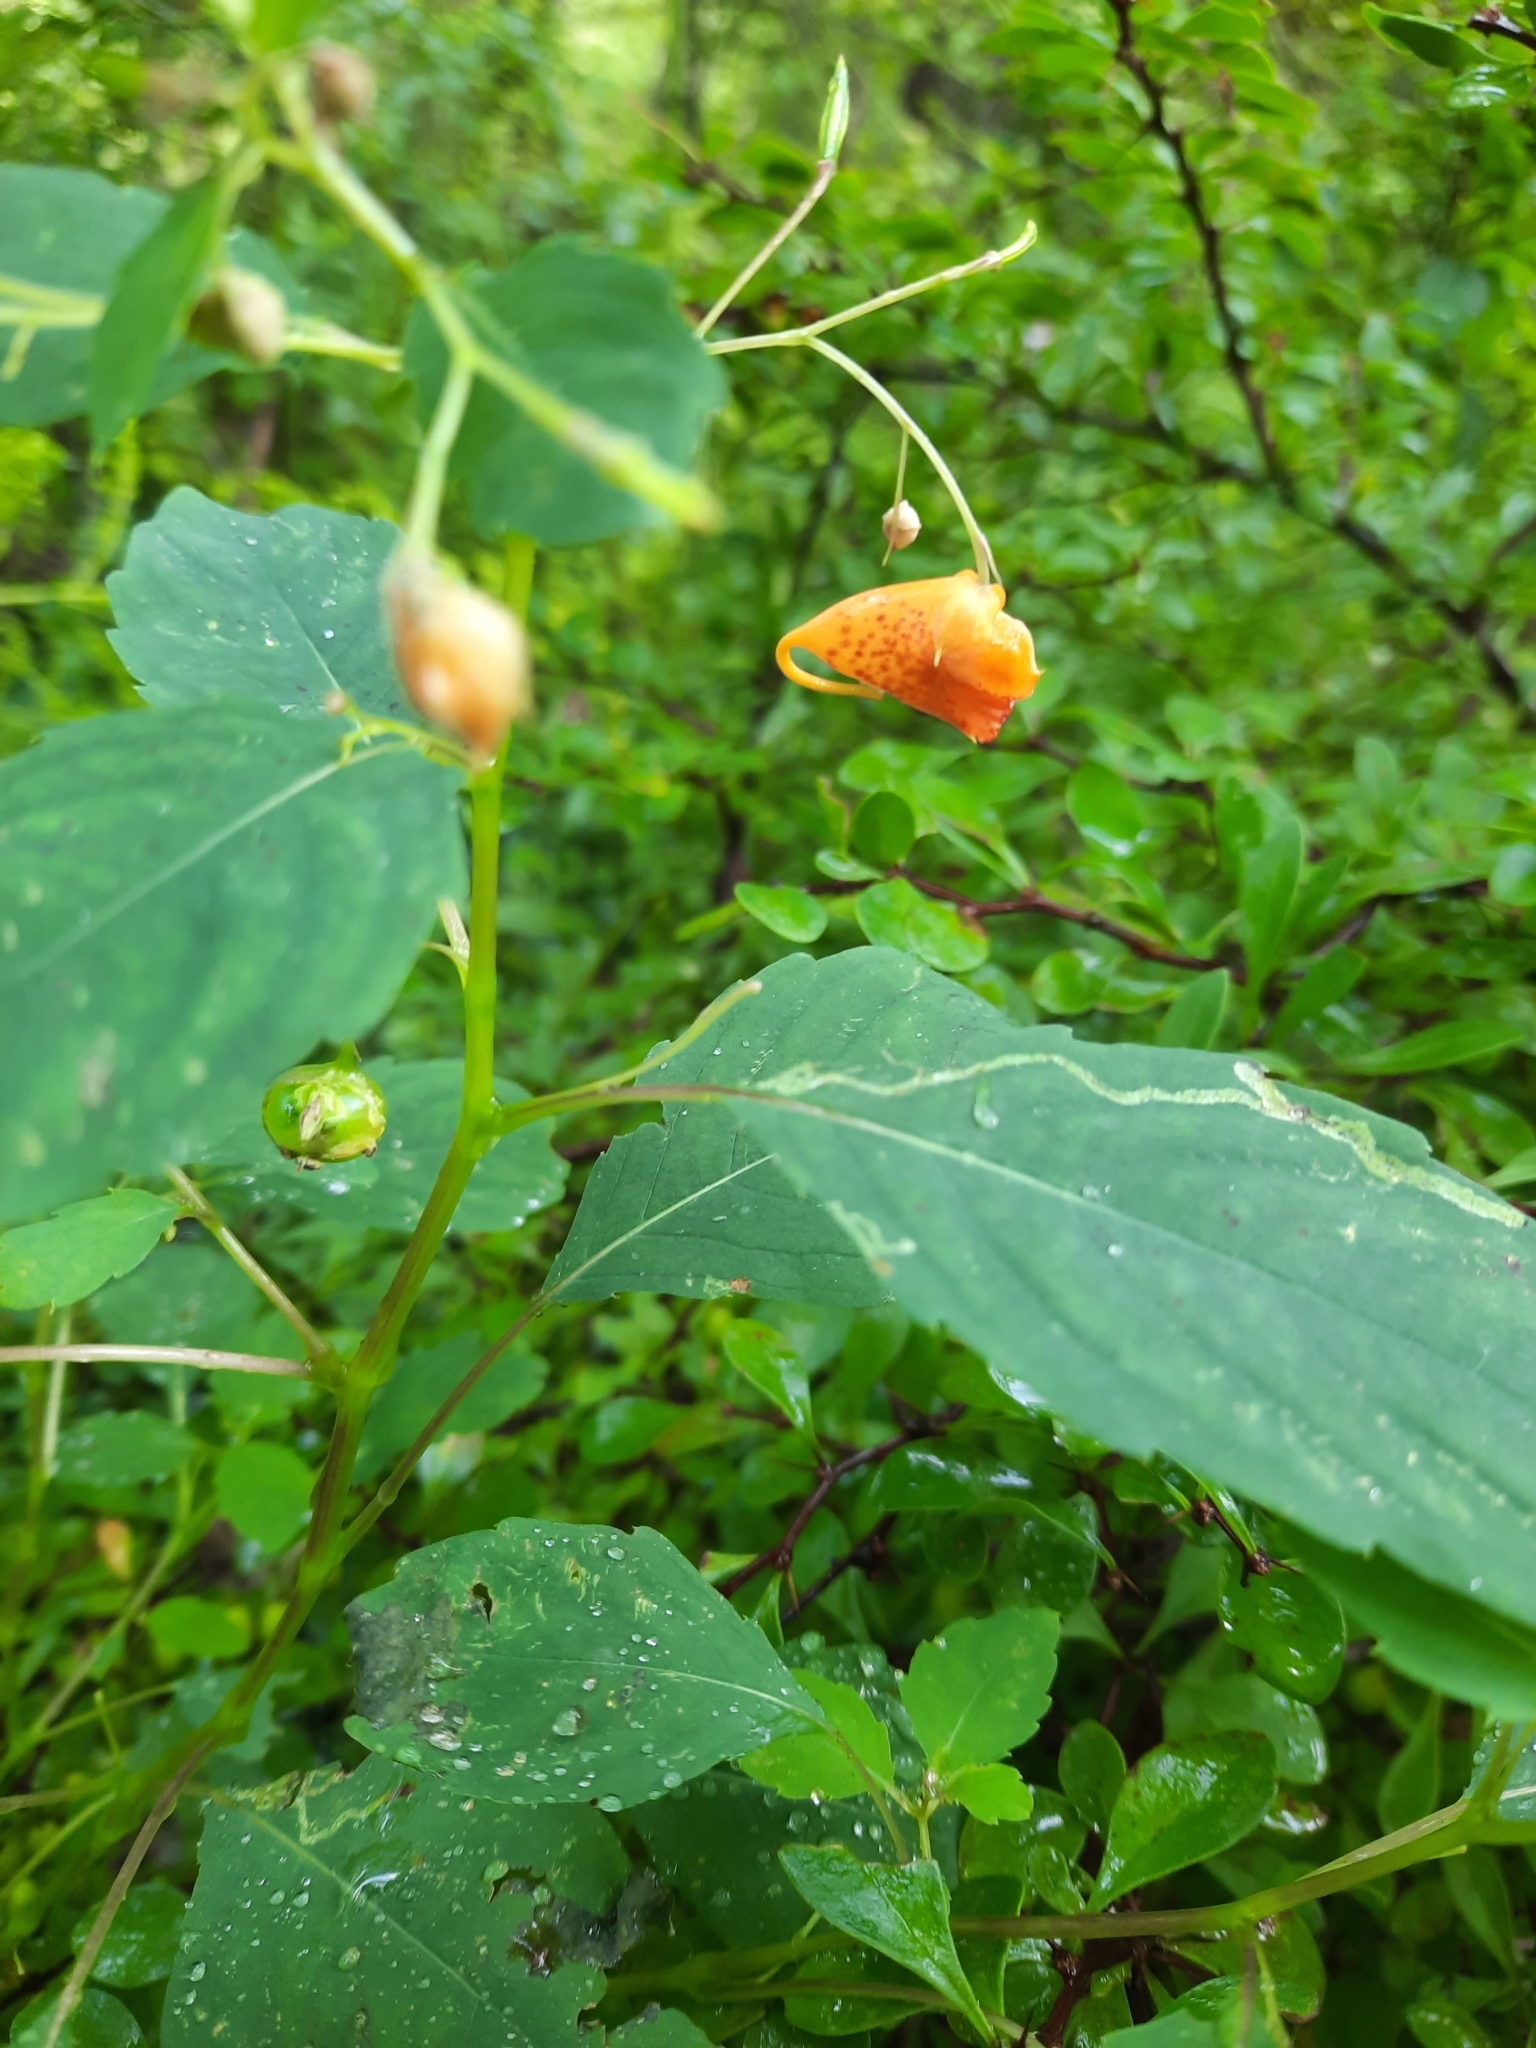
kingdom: Plantae
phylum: Tracheophyta
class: Magnoliopsida
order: Ericales
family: Balsaminaceae
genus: Impatiens
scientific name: Impatiens capensis
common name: Orange balsam
